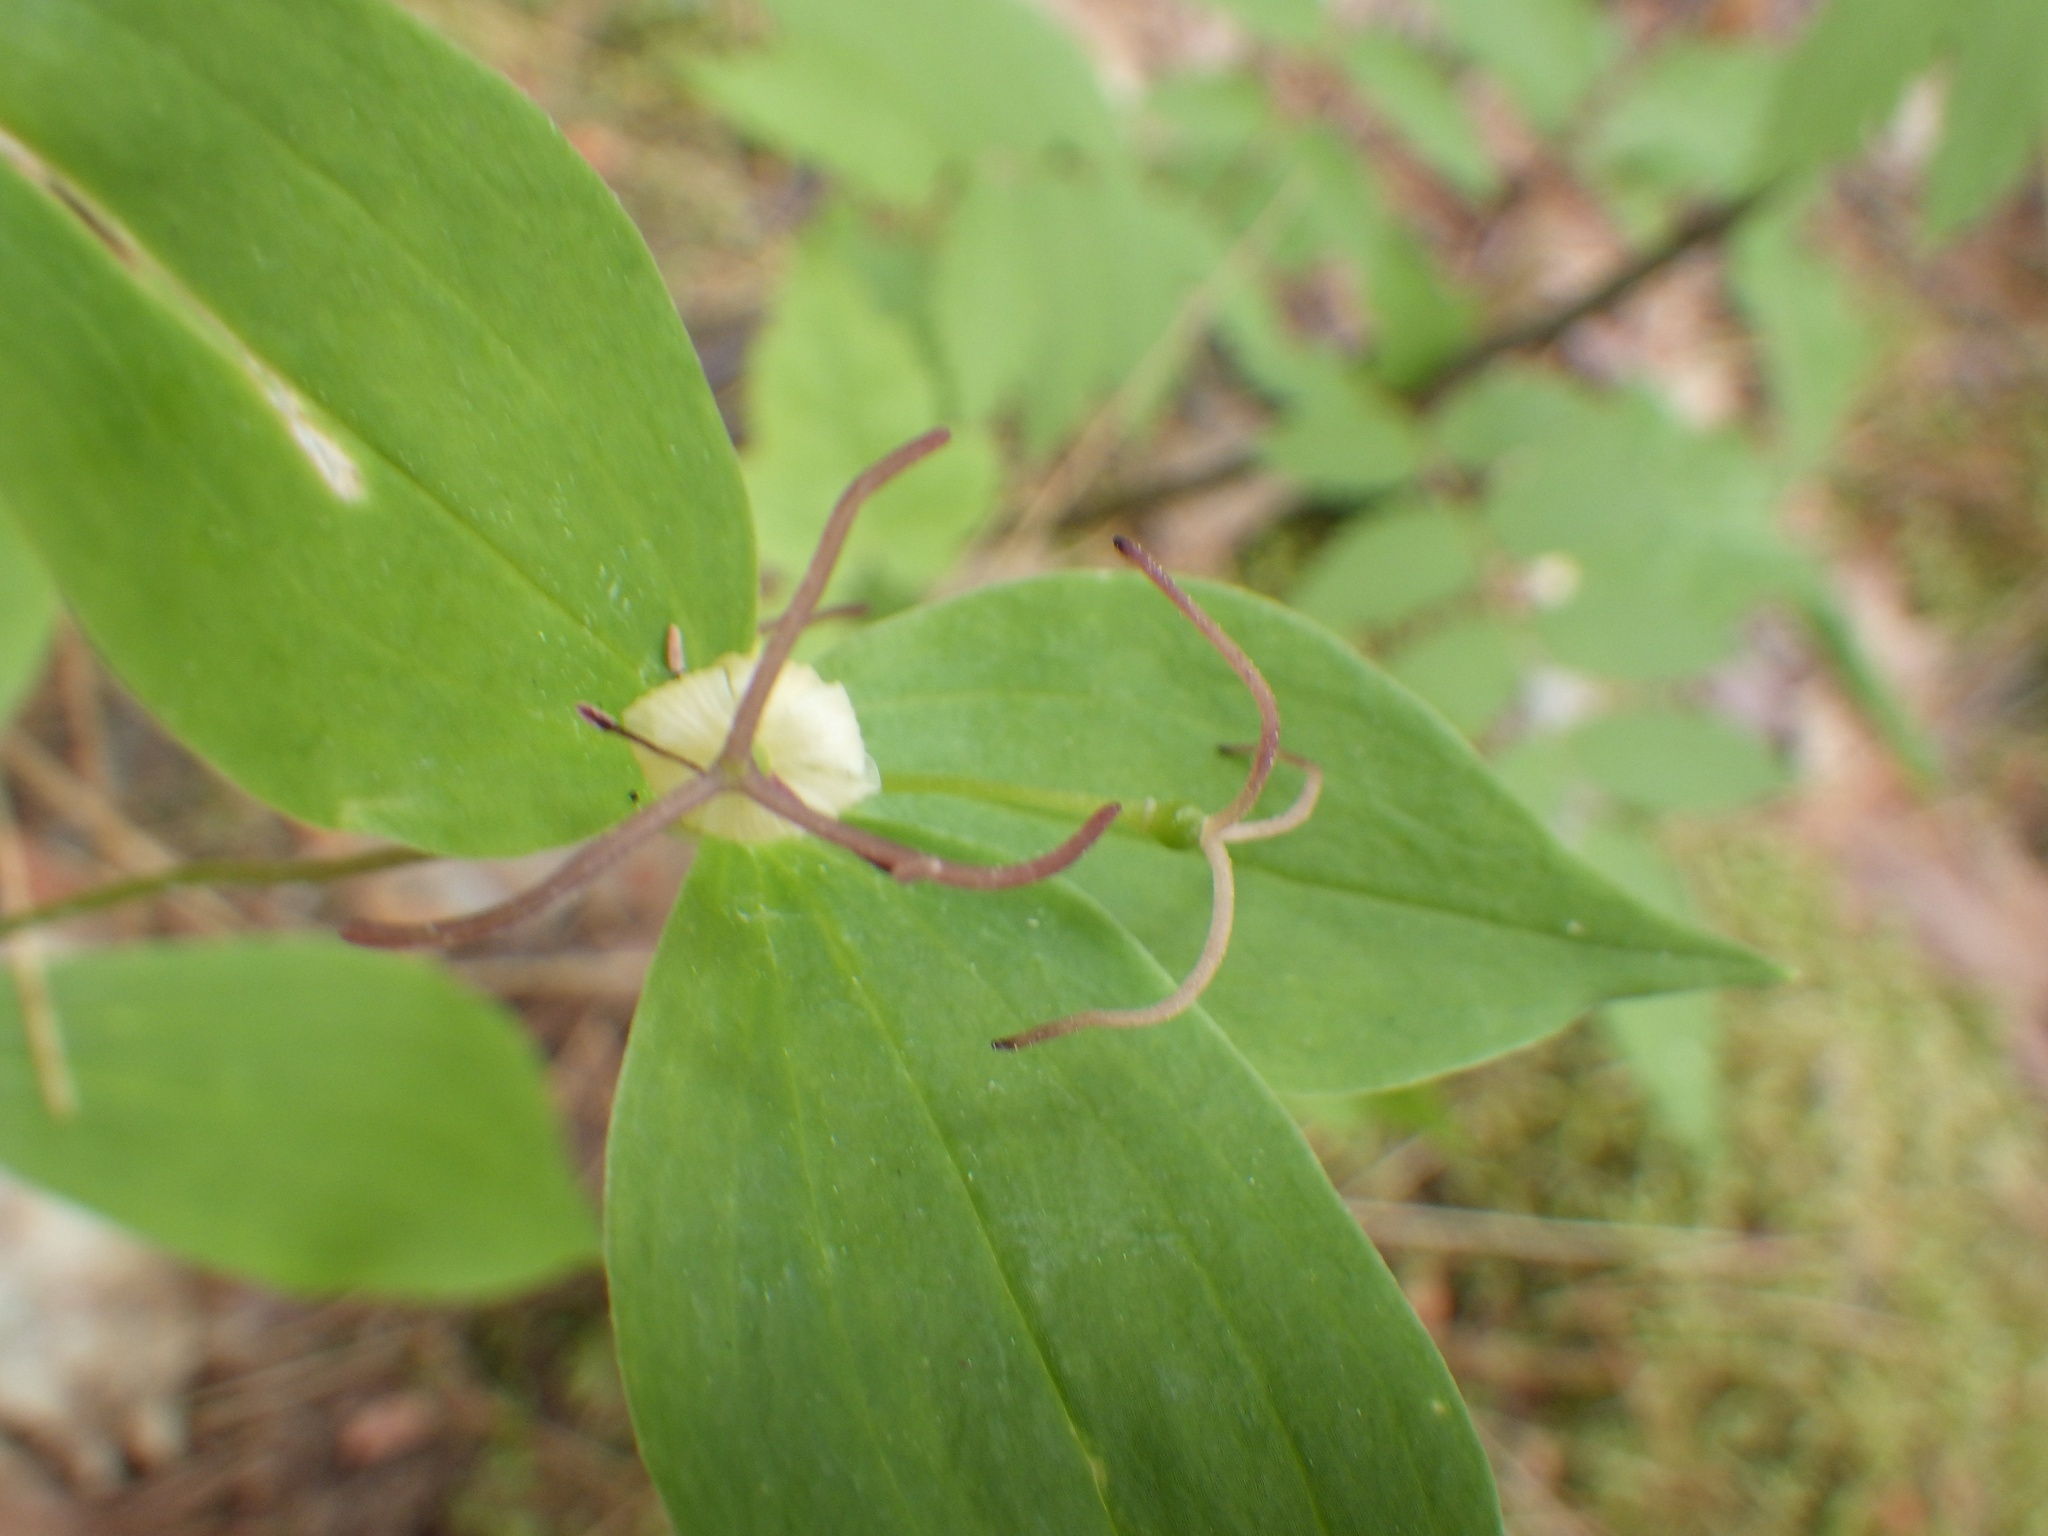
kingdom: Plantae
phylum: Tracheophyta
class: Liliopsida
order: Liliales
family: Liliaceae
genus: Medeola
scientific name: Medeola virginiana
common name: Indian cucumber-root
